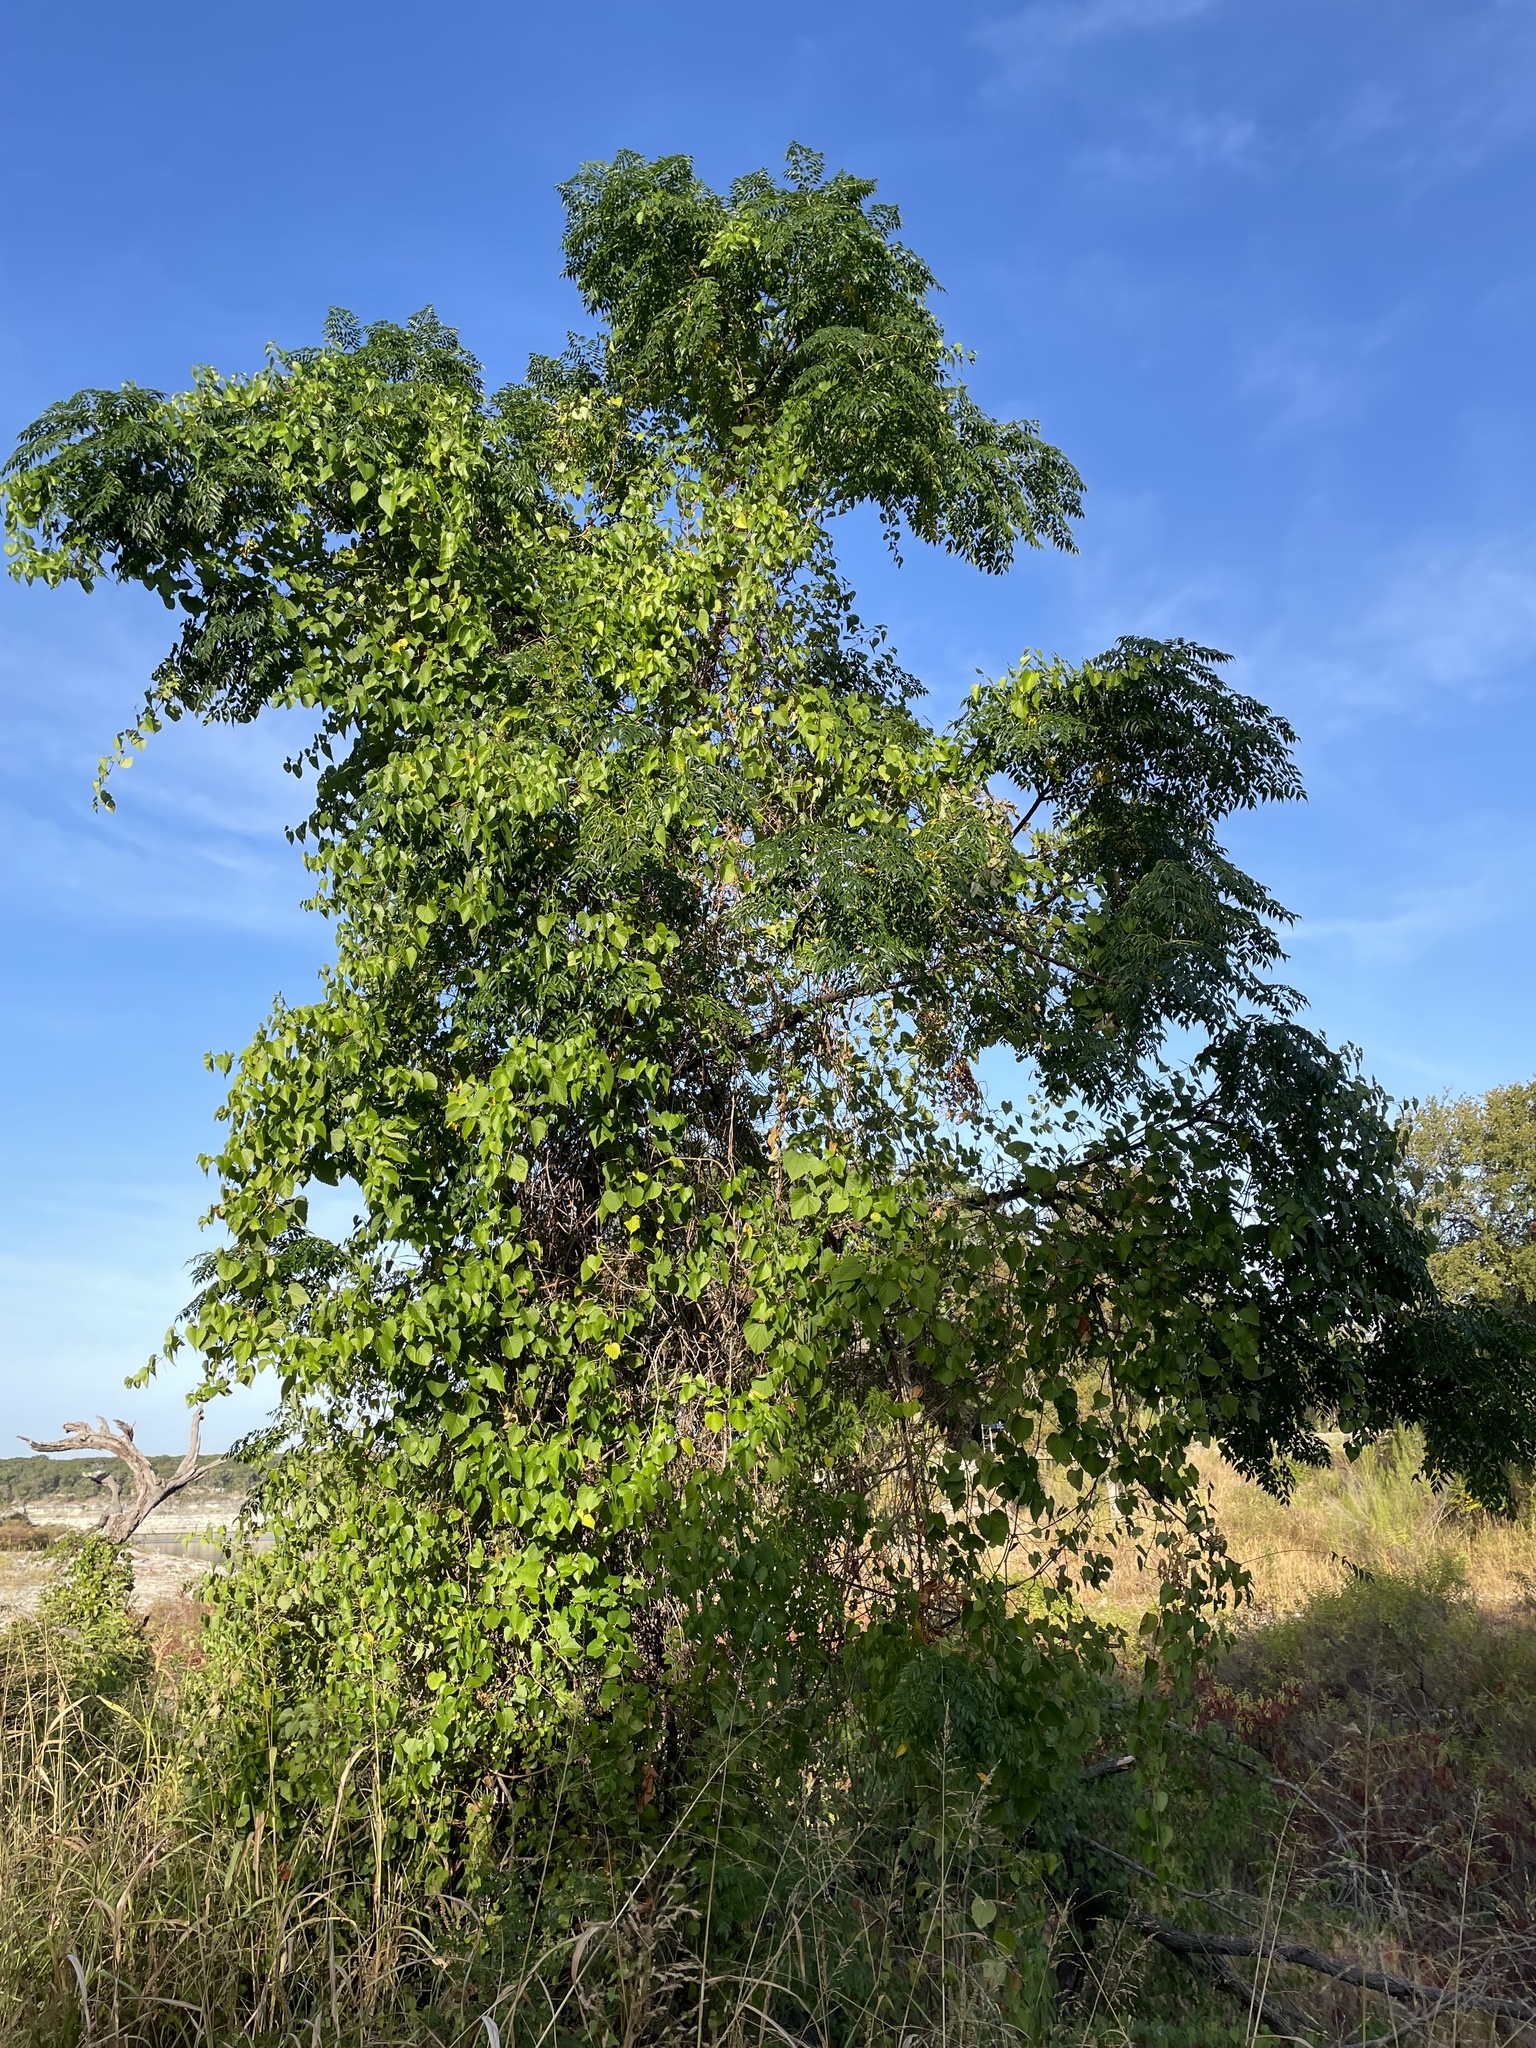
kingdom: Plantae
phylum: Tracheophyta
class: Magnoliopsida
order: Sapindales
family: Meliaceae
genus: Melia
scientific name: Melia azedarach
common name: Chinaberrytree
